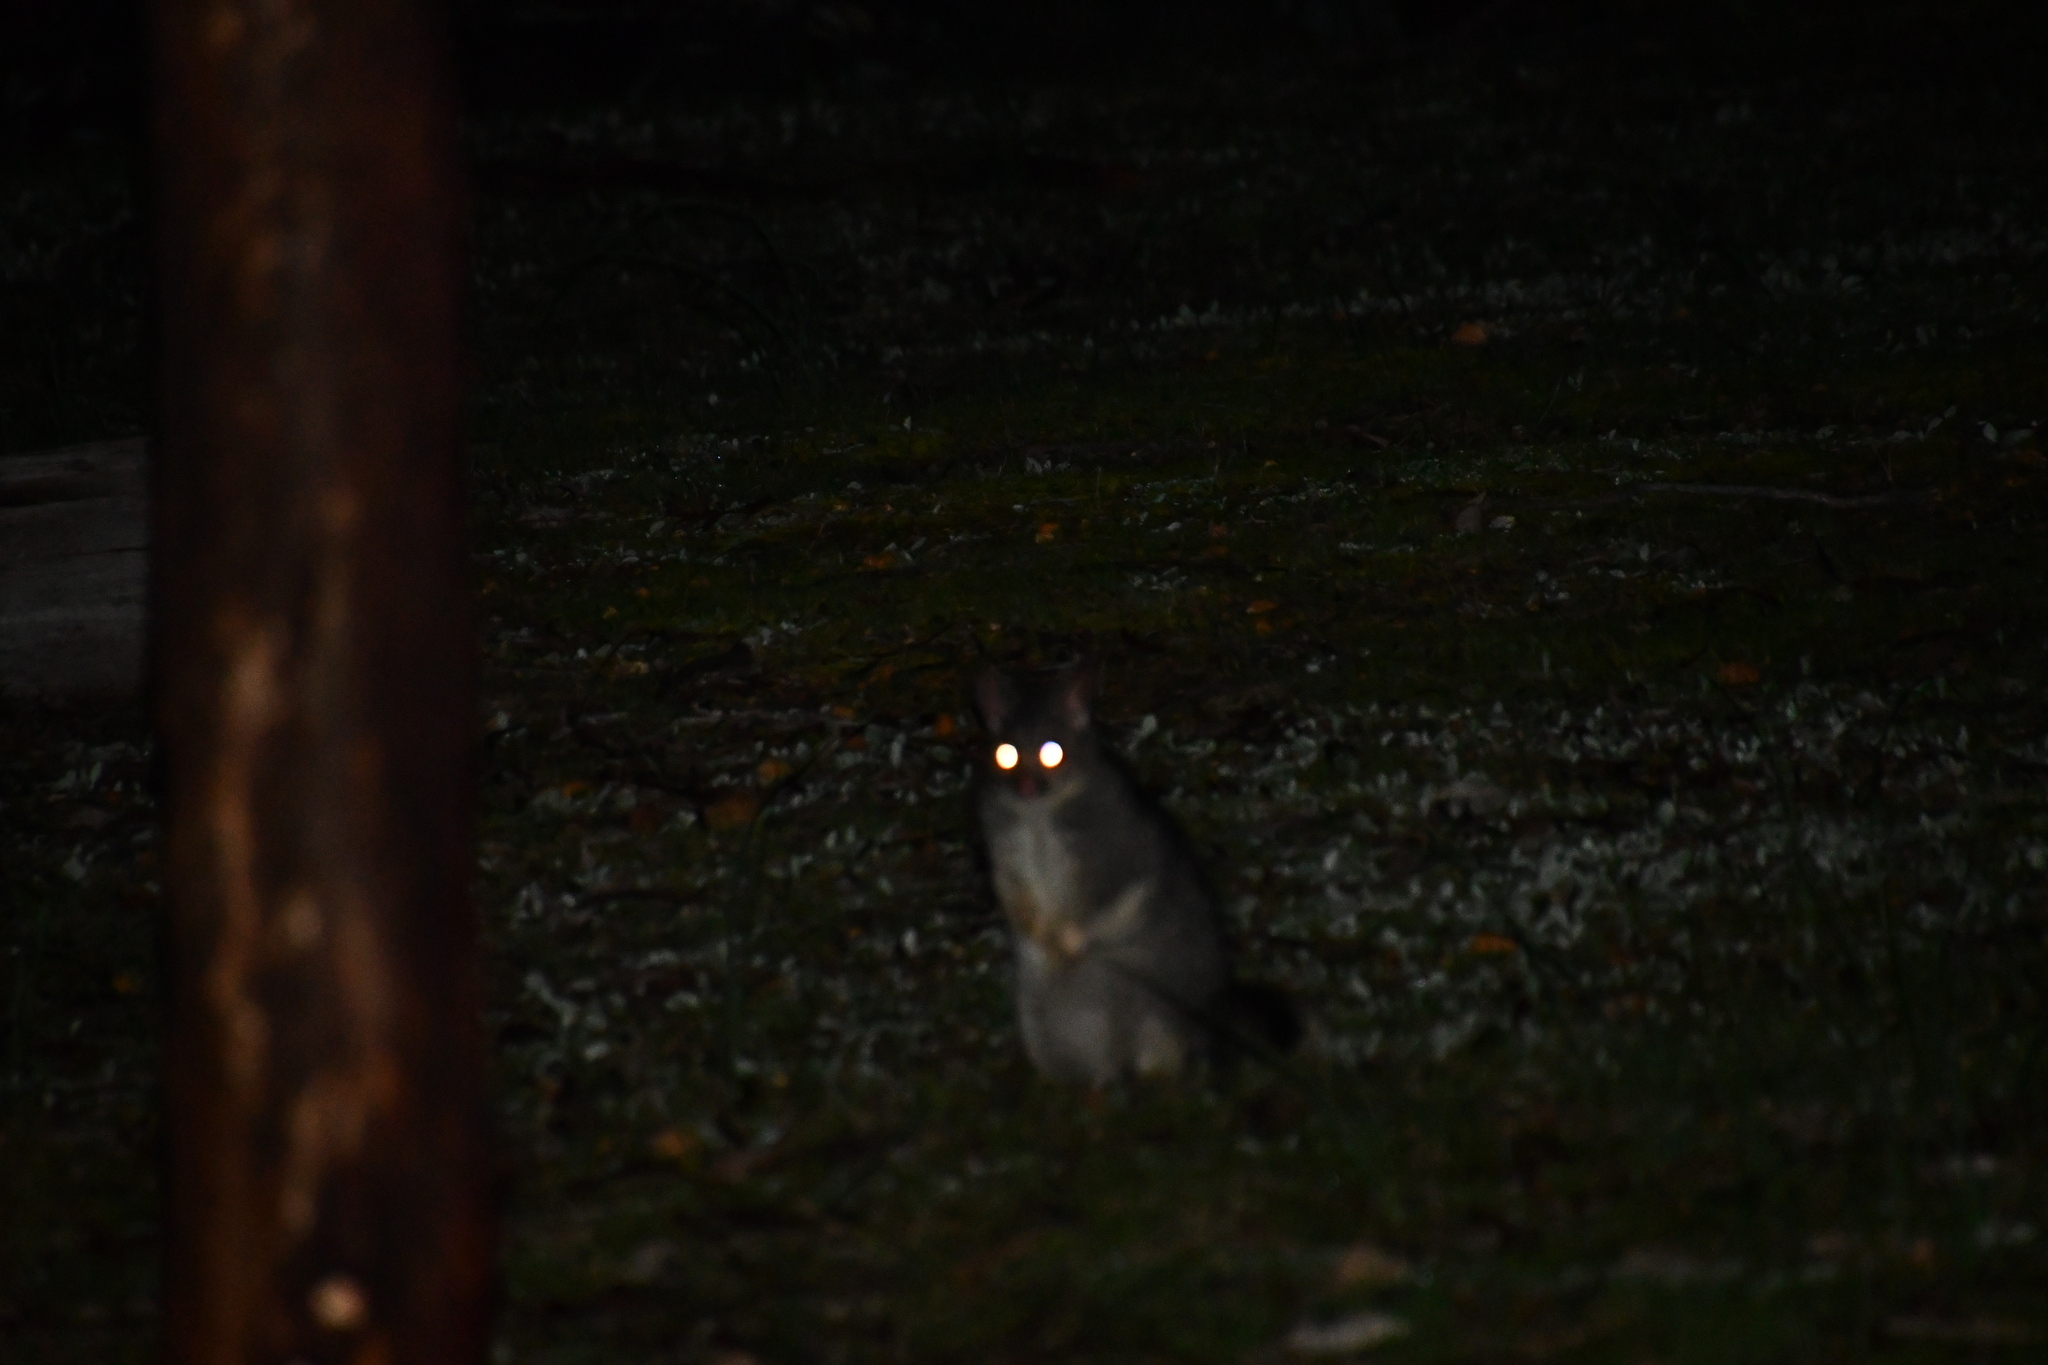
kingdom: Animalia
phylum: Chordata
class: Mammalia
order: Diprotodontia
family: Phalangeridae
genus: Trichosurus
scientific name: Trichosurus vulpecula
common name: Common brushtail
